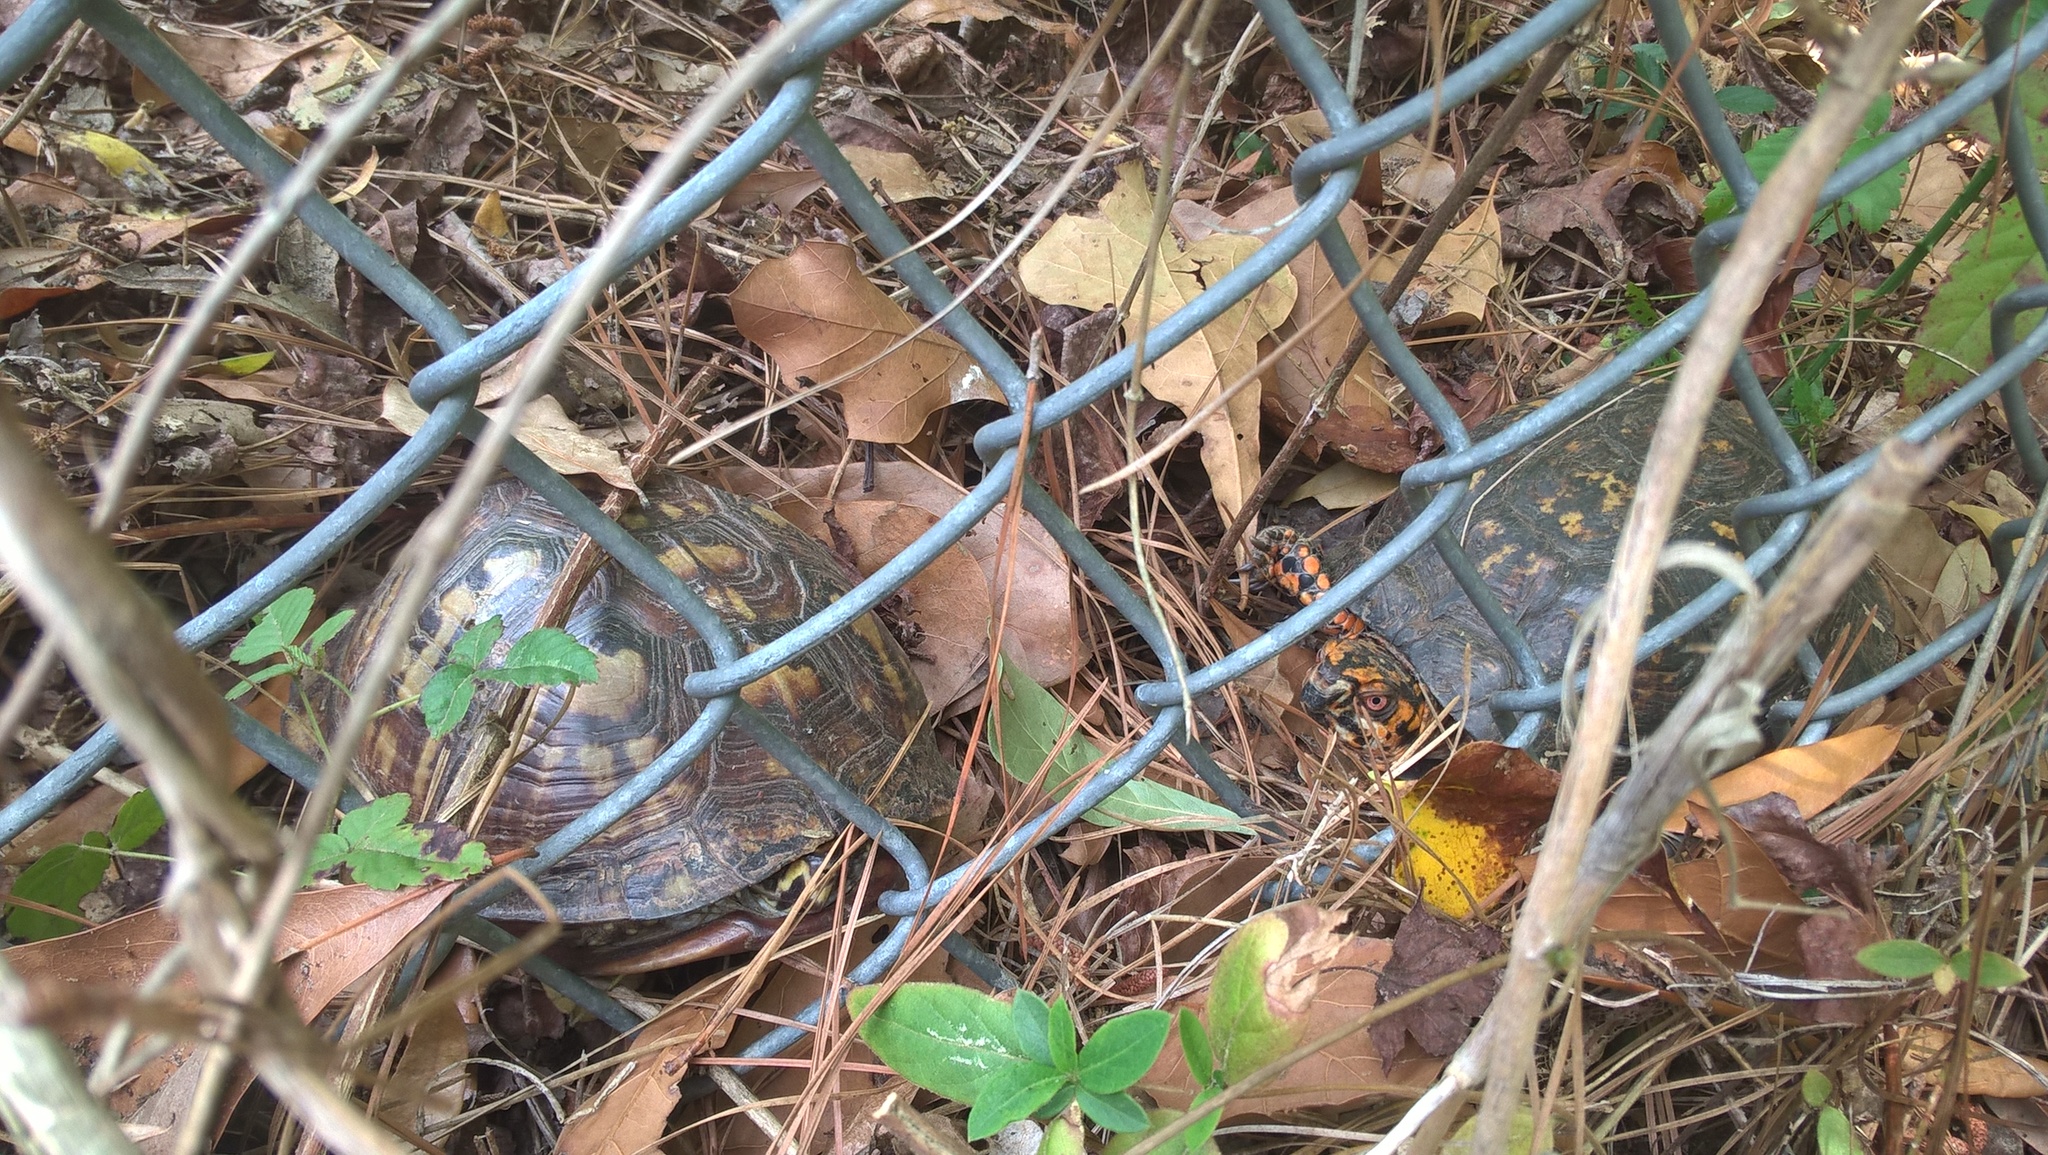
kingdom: Animalia
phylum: Chordata
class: Testudines
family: Emydidae
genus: Terrapene
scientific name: Terrapene carolina
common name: Common box turtle
